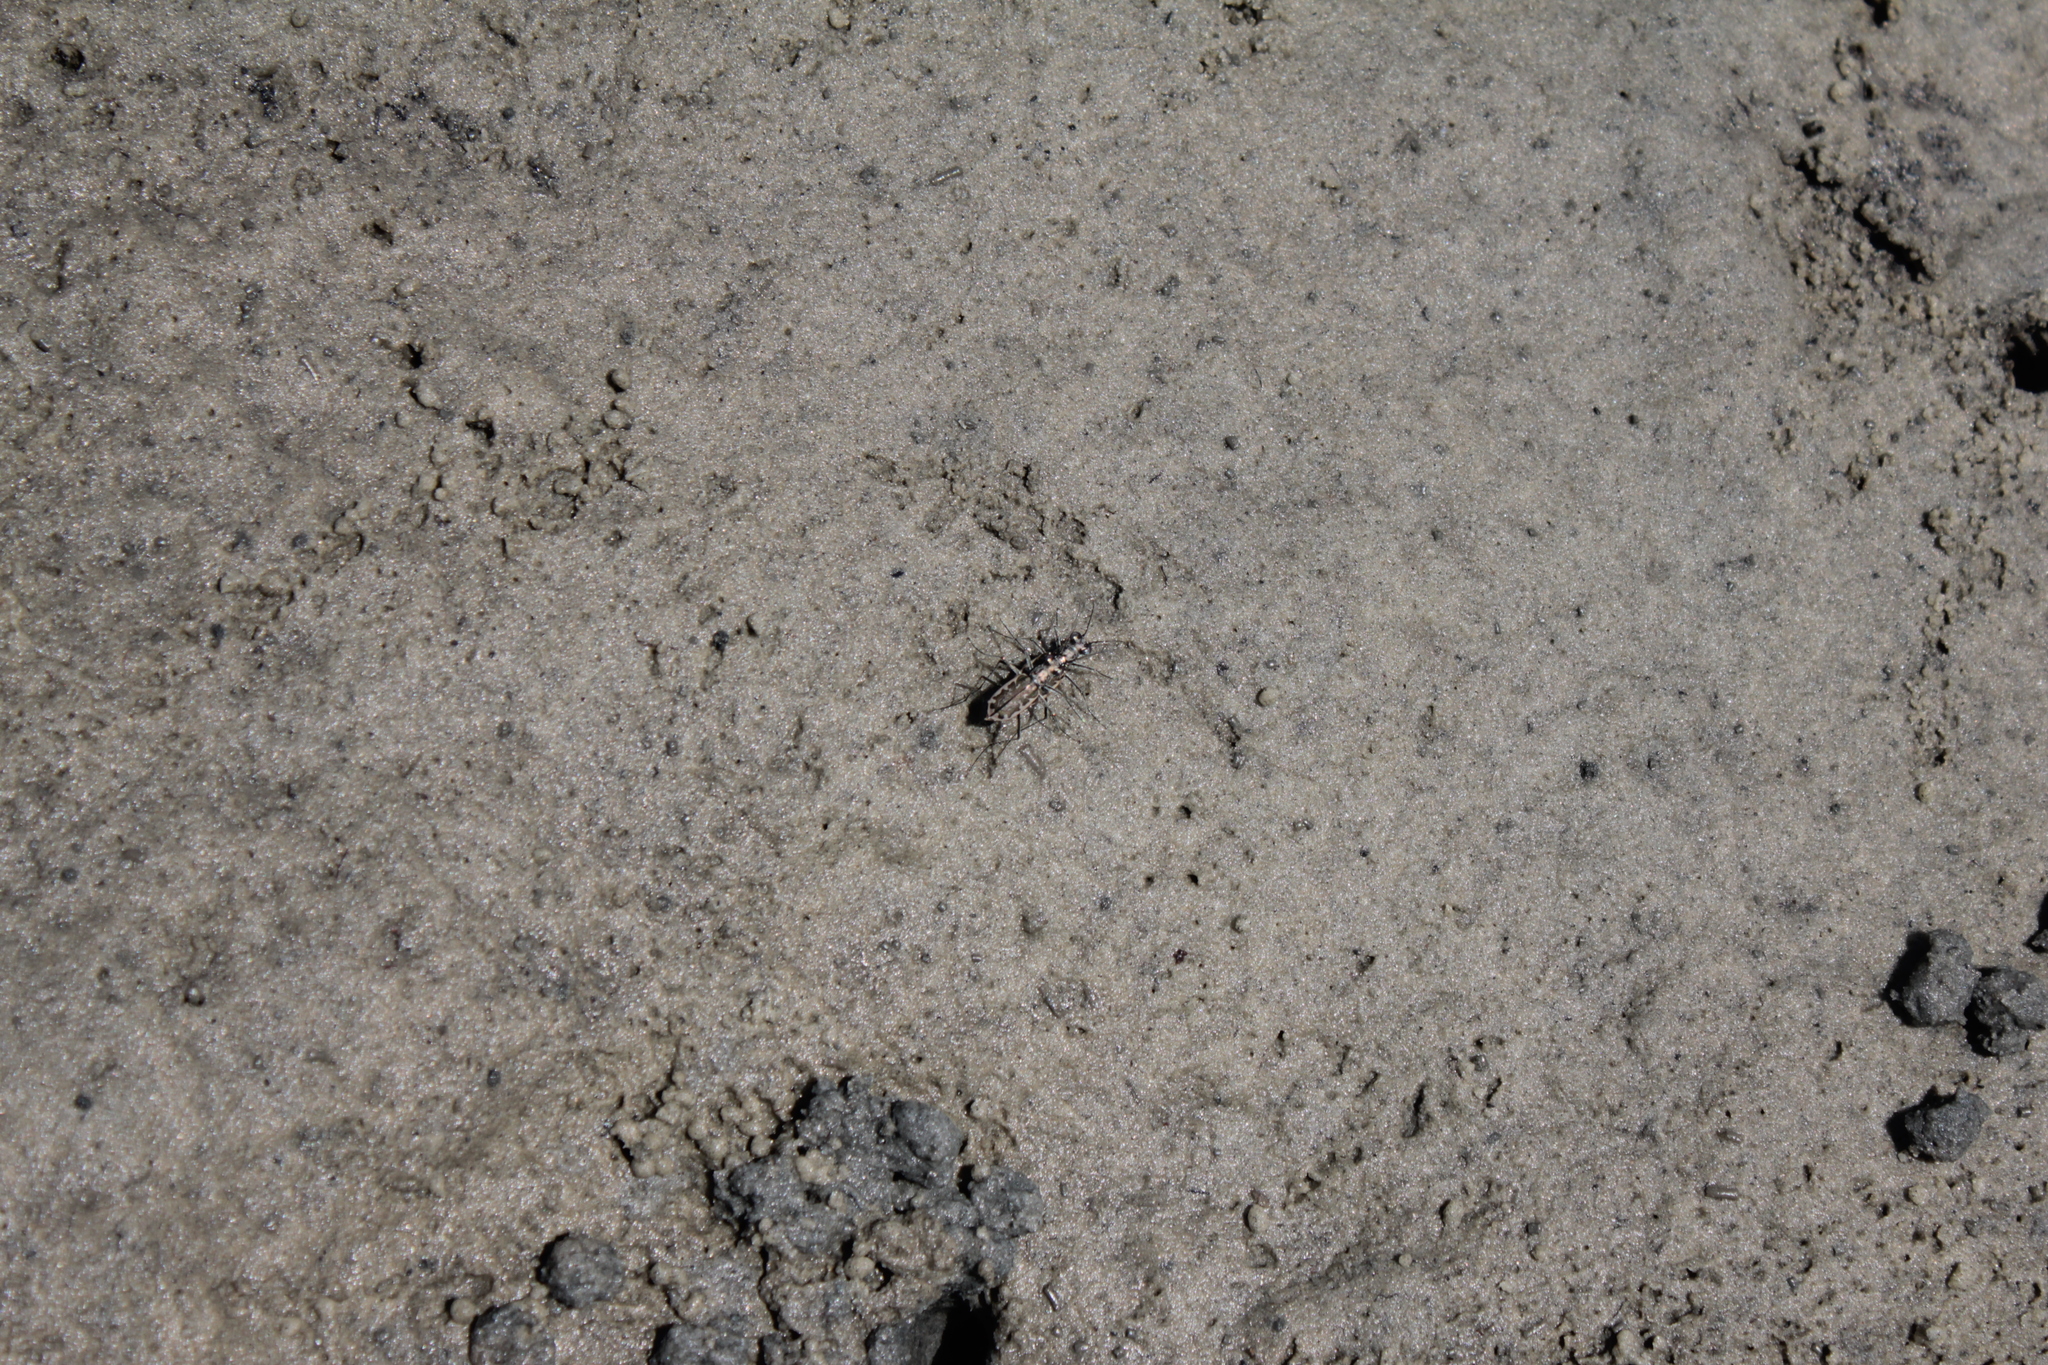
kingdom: Animalia
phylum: Arthropoda
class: Insecta
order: Coleoptera
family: Carabidae
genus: Ellipsoptera
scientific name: Ellipsoptera marginata
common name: Margined tiger beetle
